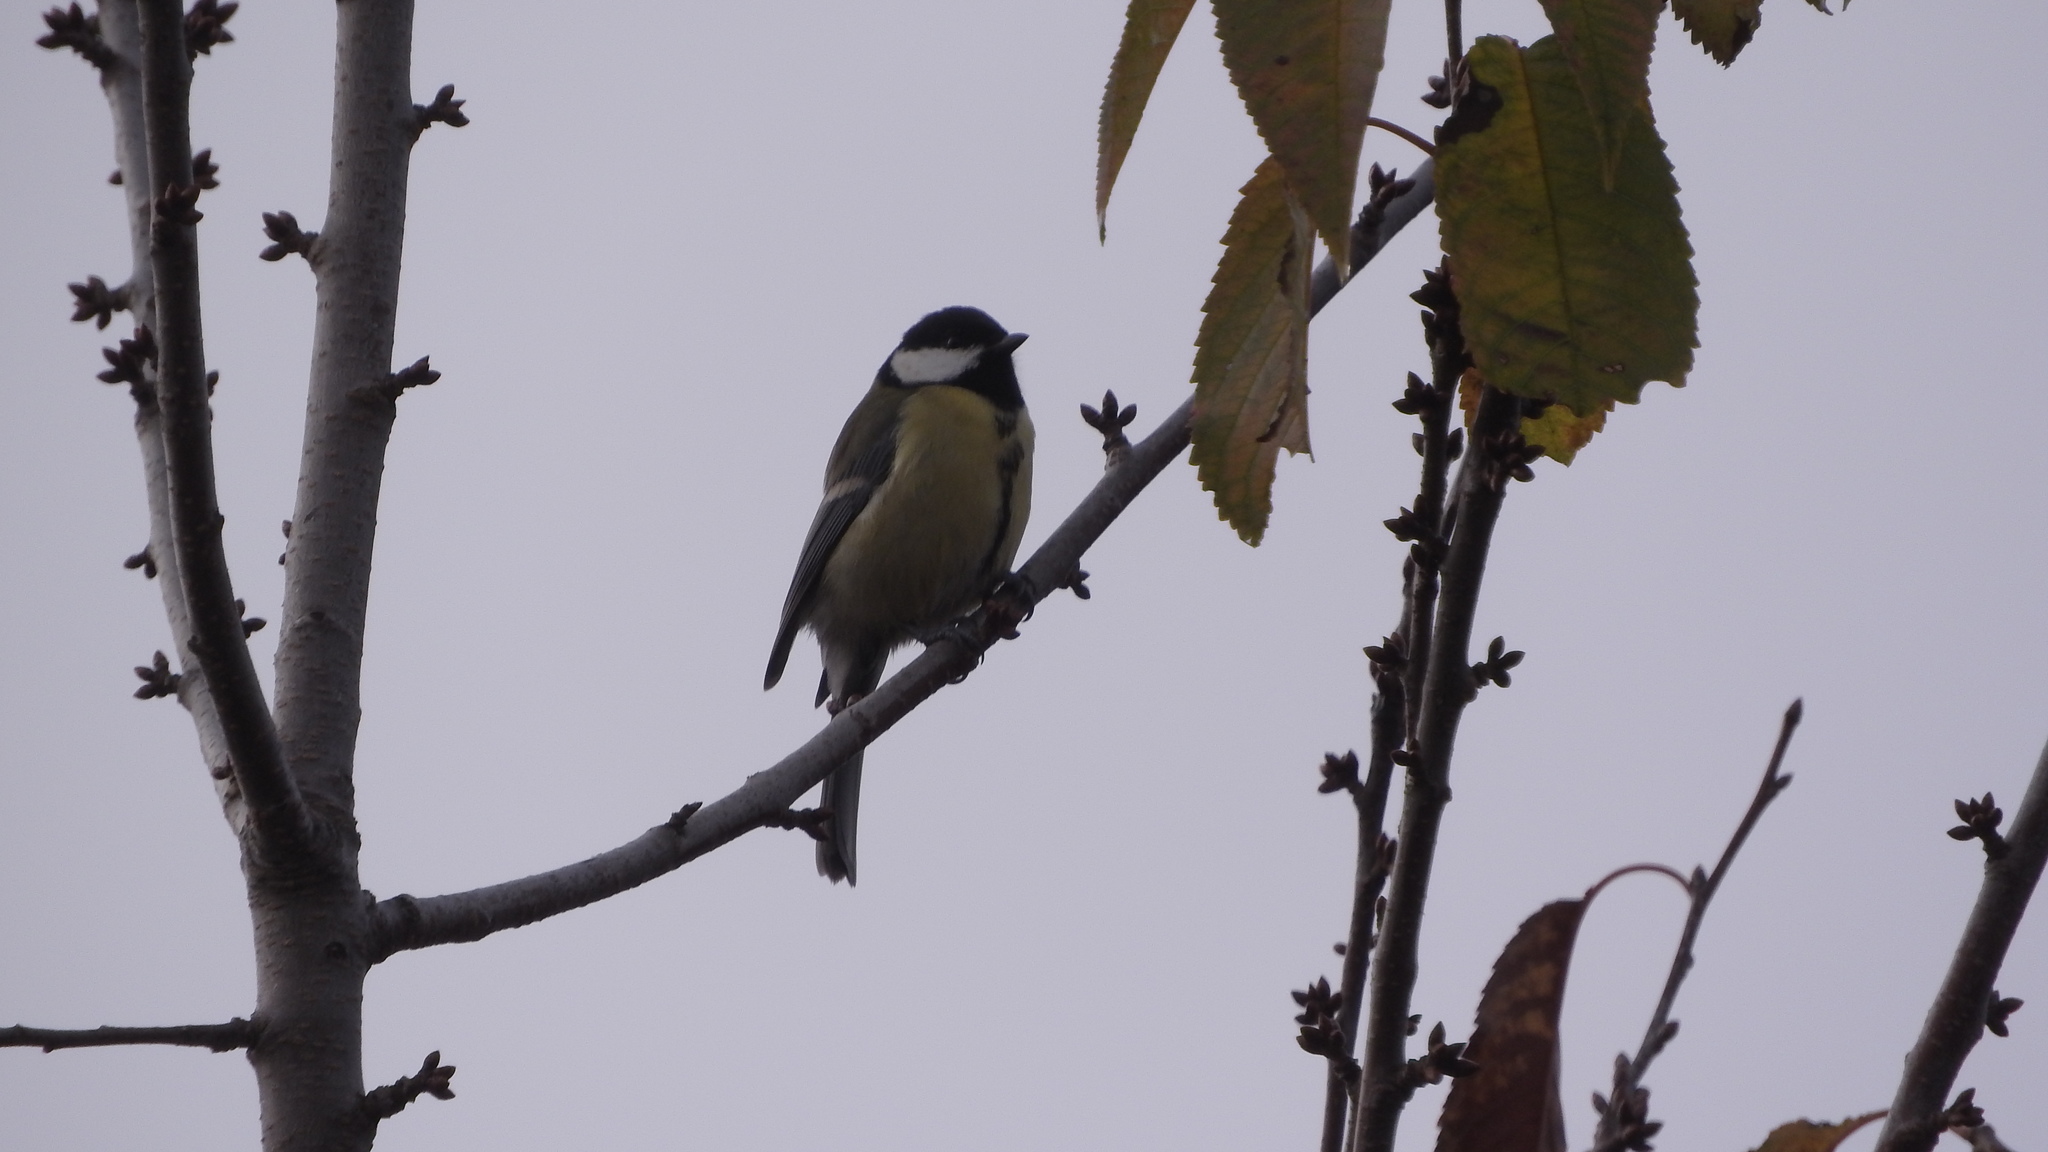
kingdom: Animalia
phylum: Chordata
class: Aves
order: Passeriformes
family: Paridae
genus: Parus
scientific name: Parus major
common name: Great tit
